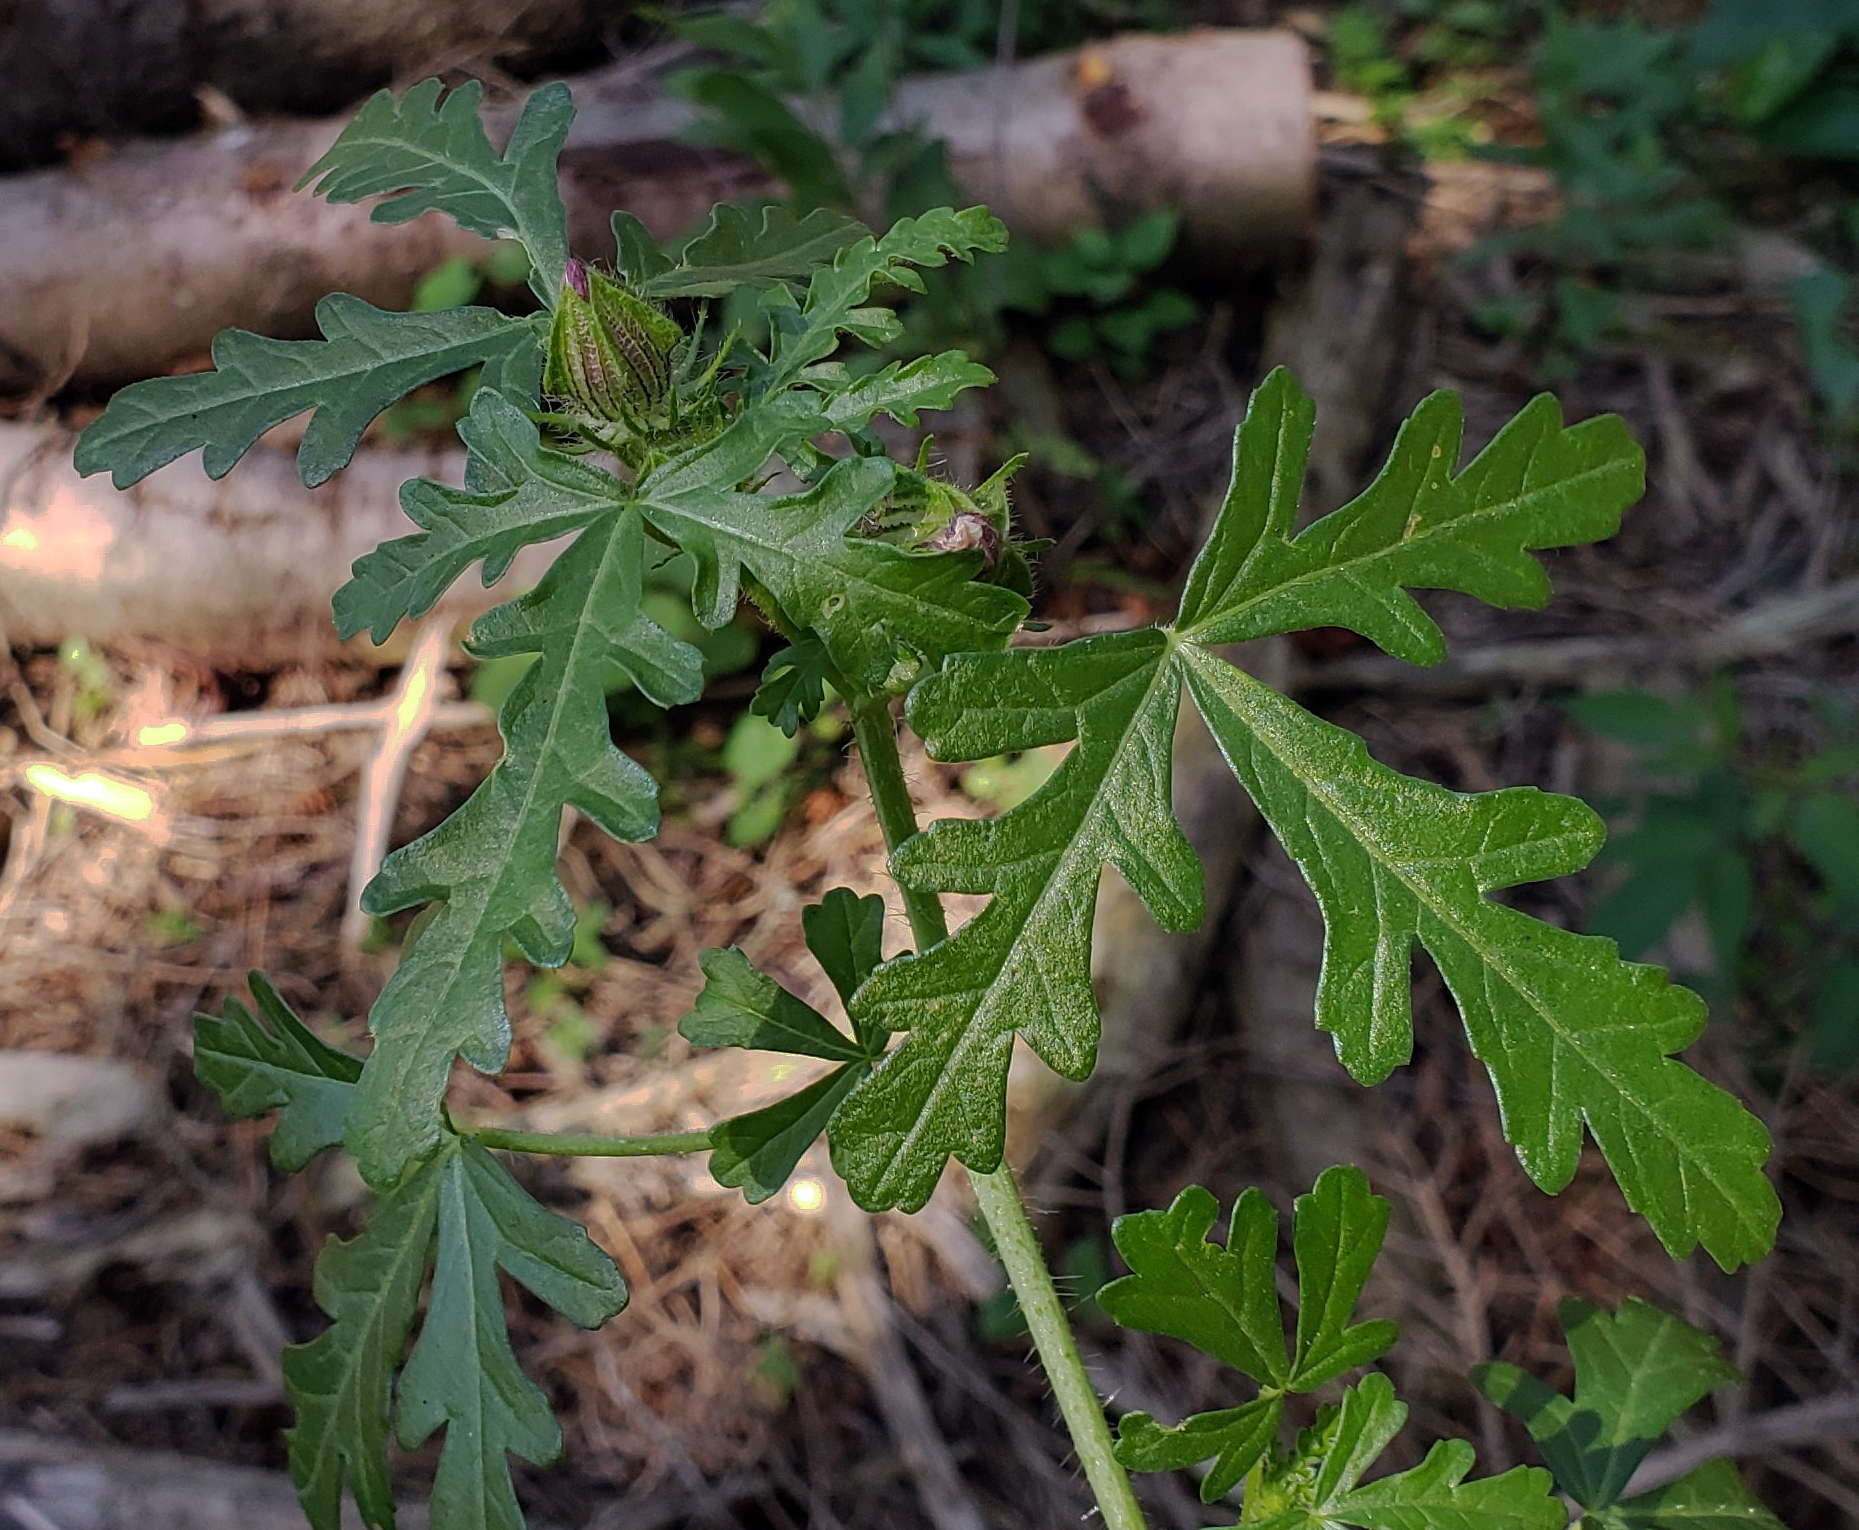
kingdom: Plantae
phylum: Tracheophyta
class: Magnoliopsida
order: Malvales
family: Malvaceae
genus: Hibiscus
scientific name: Hibiscus trionum
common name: Bladder ketmia
